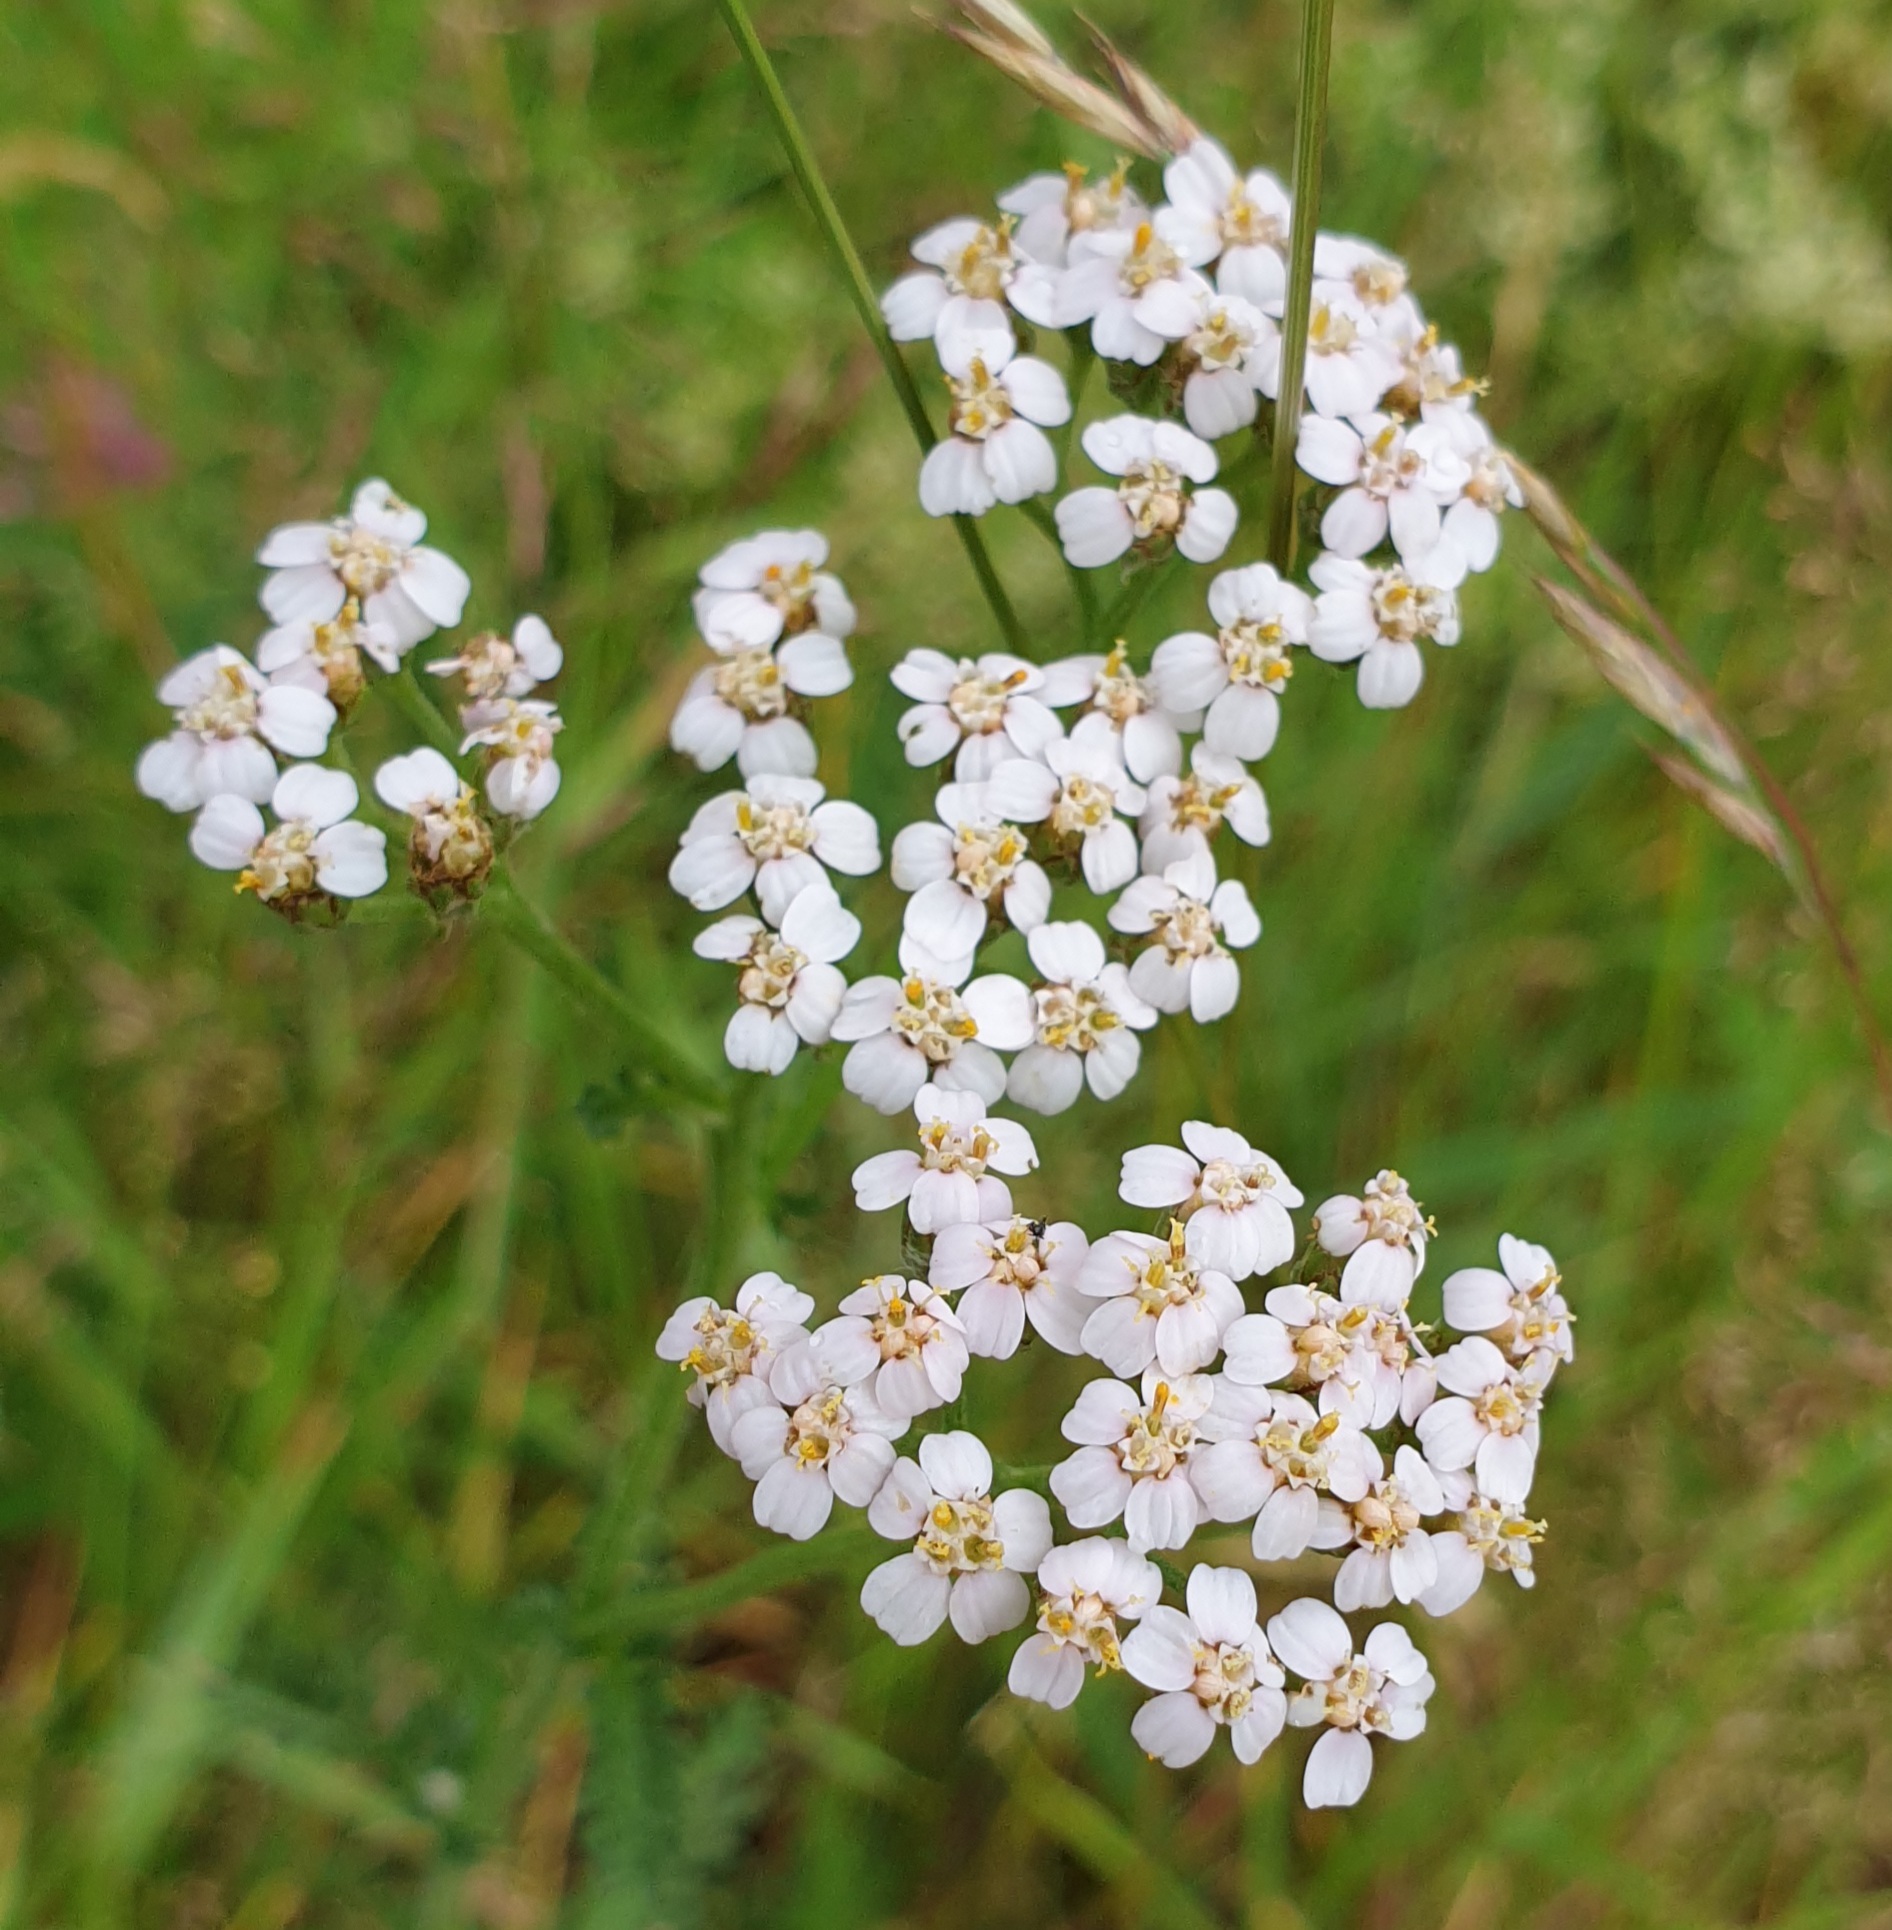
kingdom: Plantae
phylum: Tracheophyta
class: Magnoliopsida
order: Asterales
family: Asteraceae
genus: Achillea
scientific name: Achillea millefolium
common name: Yarrow
